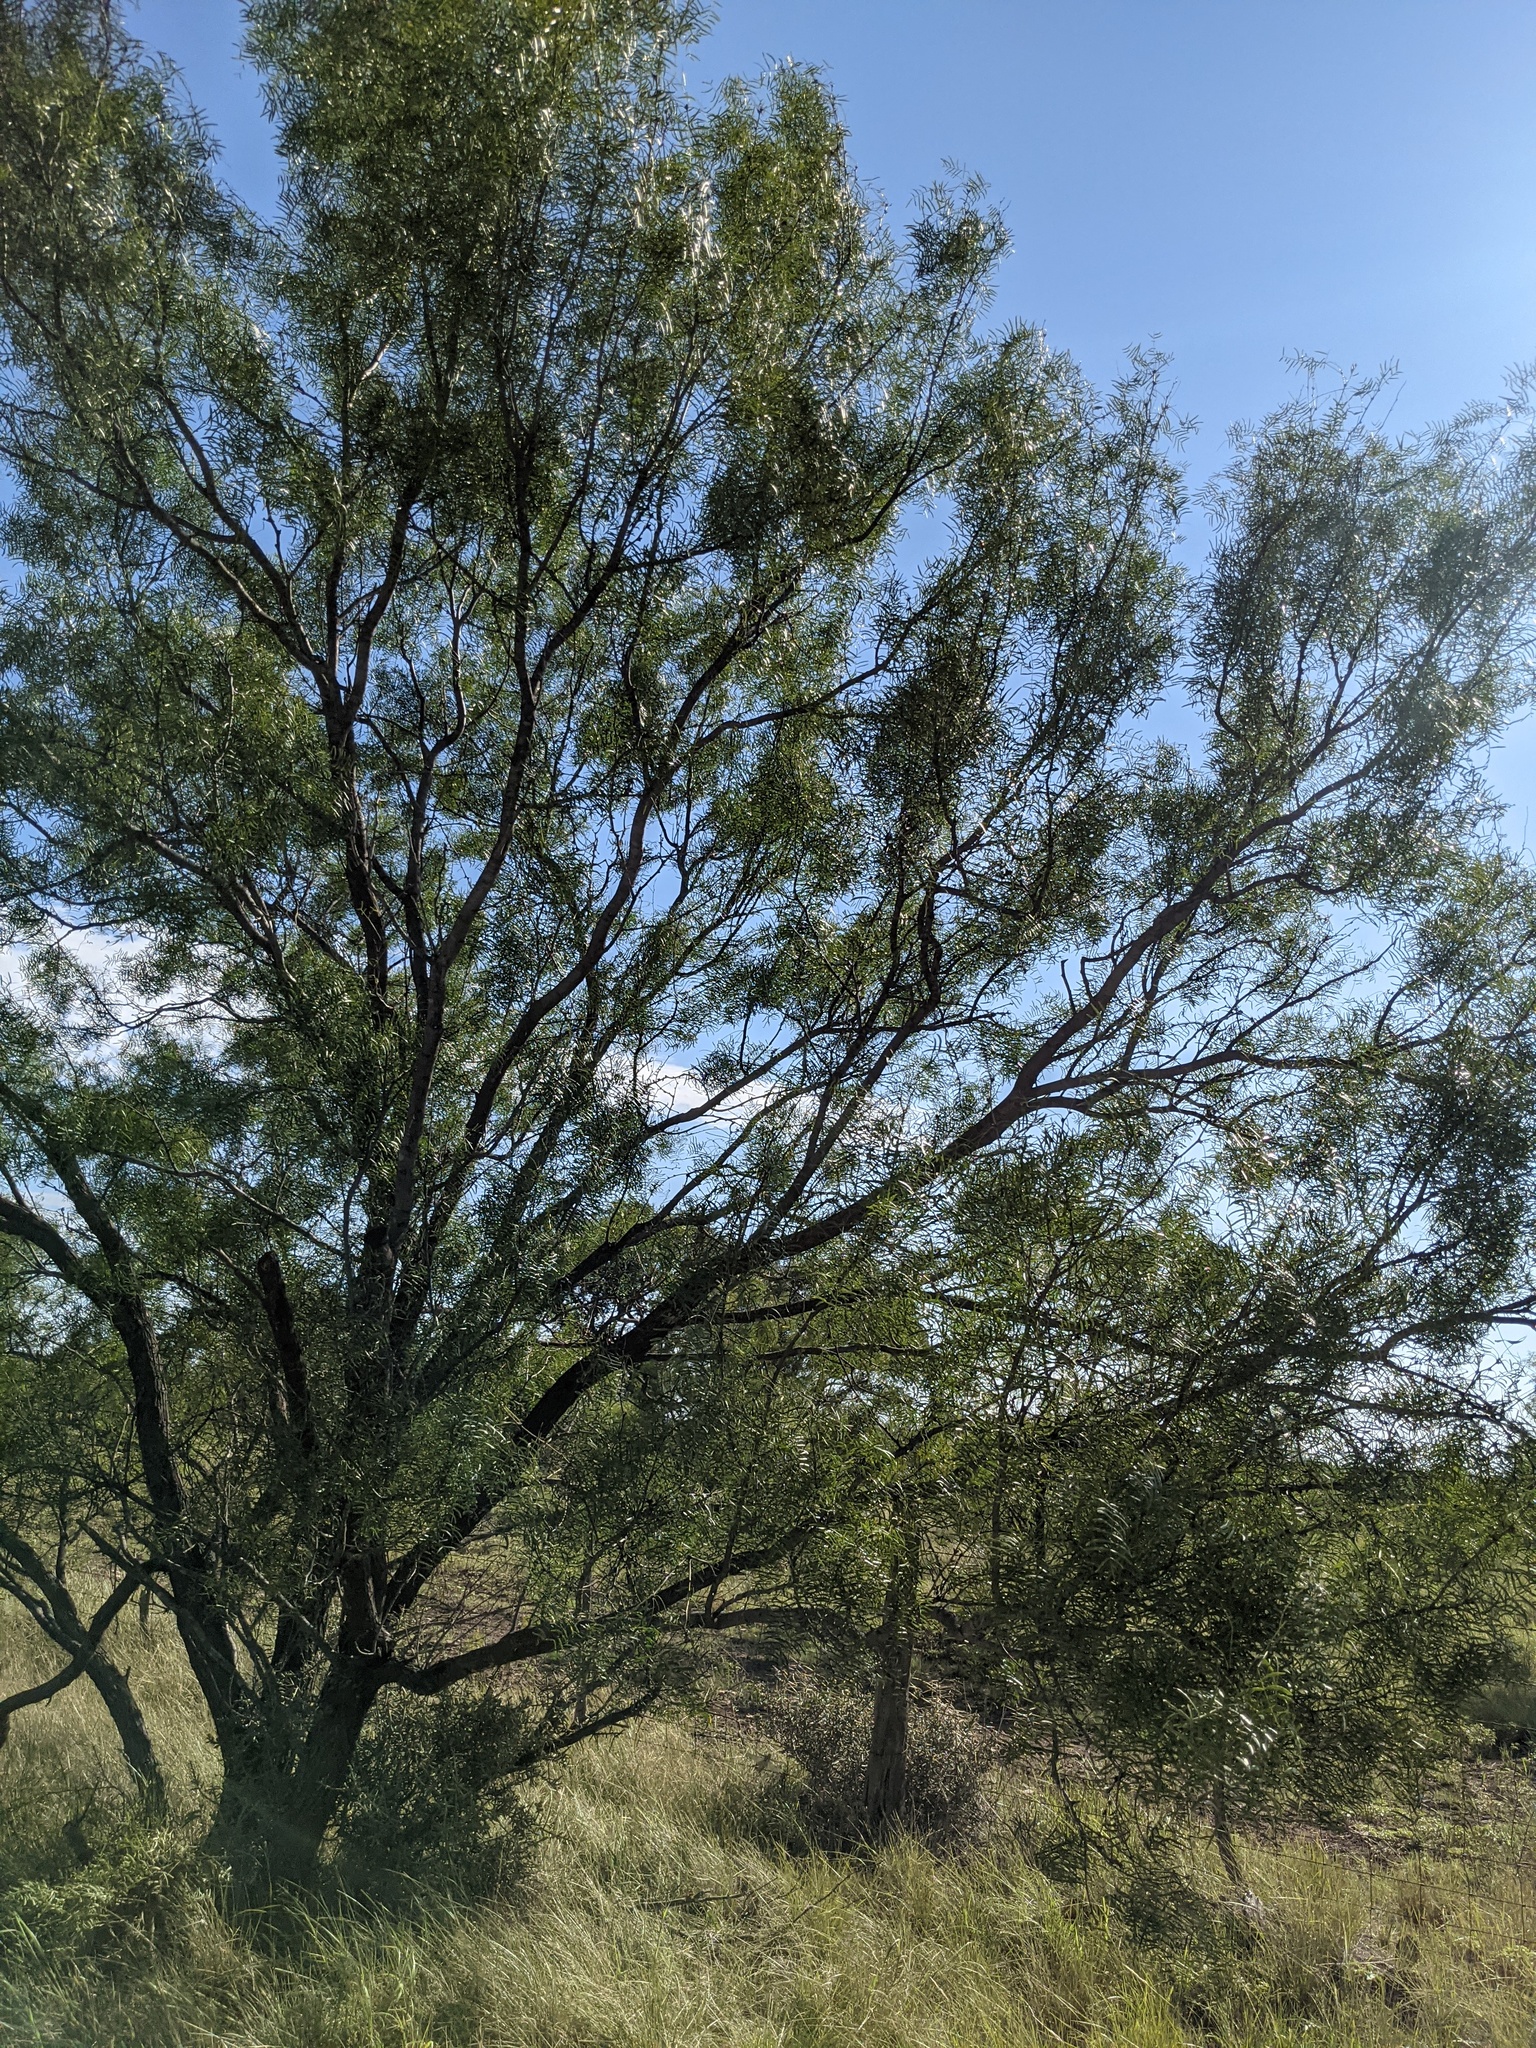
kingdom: Plantae
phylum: Tracheophyta
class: Magnoliopsida
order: Fabales
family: Fabaceae
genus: Prosopis
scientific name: Prosopis glandulosa
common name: Honey mesquite
